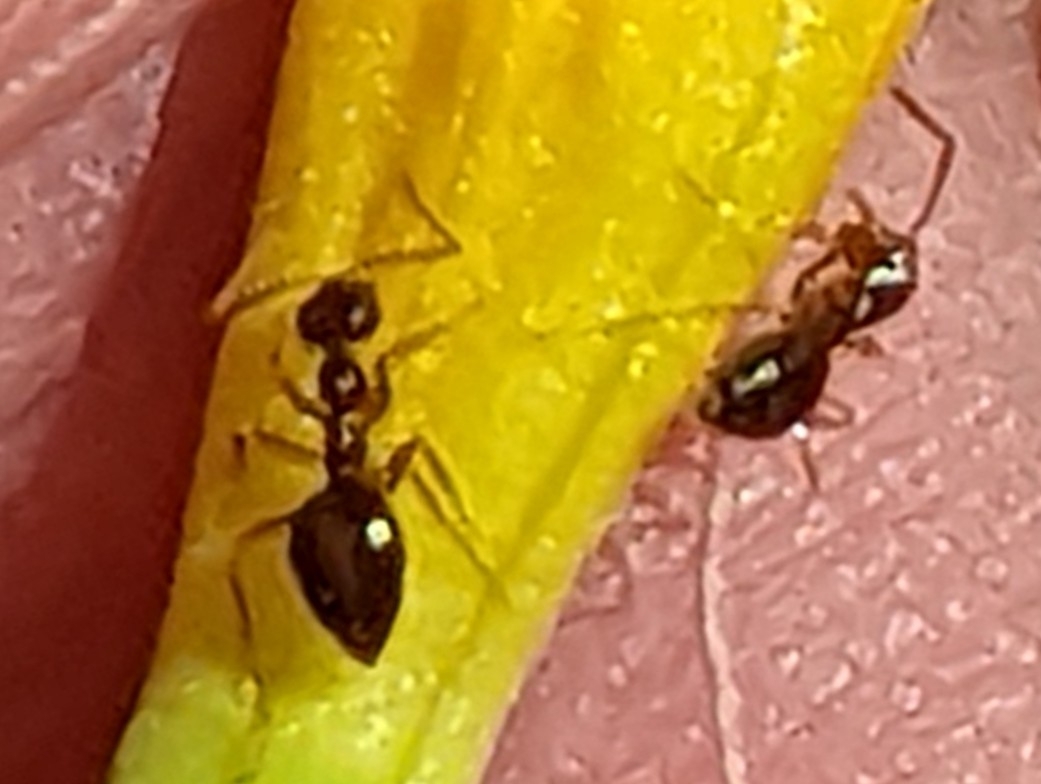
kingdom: Animalia
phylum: Arthropoda
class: Insecta
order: Hymenoptera
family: Formicidae
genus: Prenolepis
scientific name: Prenolepis imparis
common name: Small honey ant
